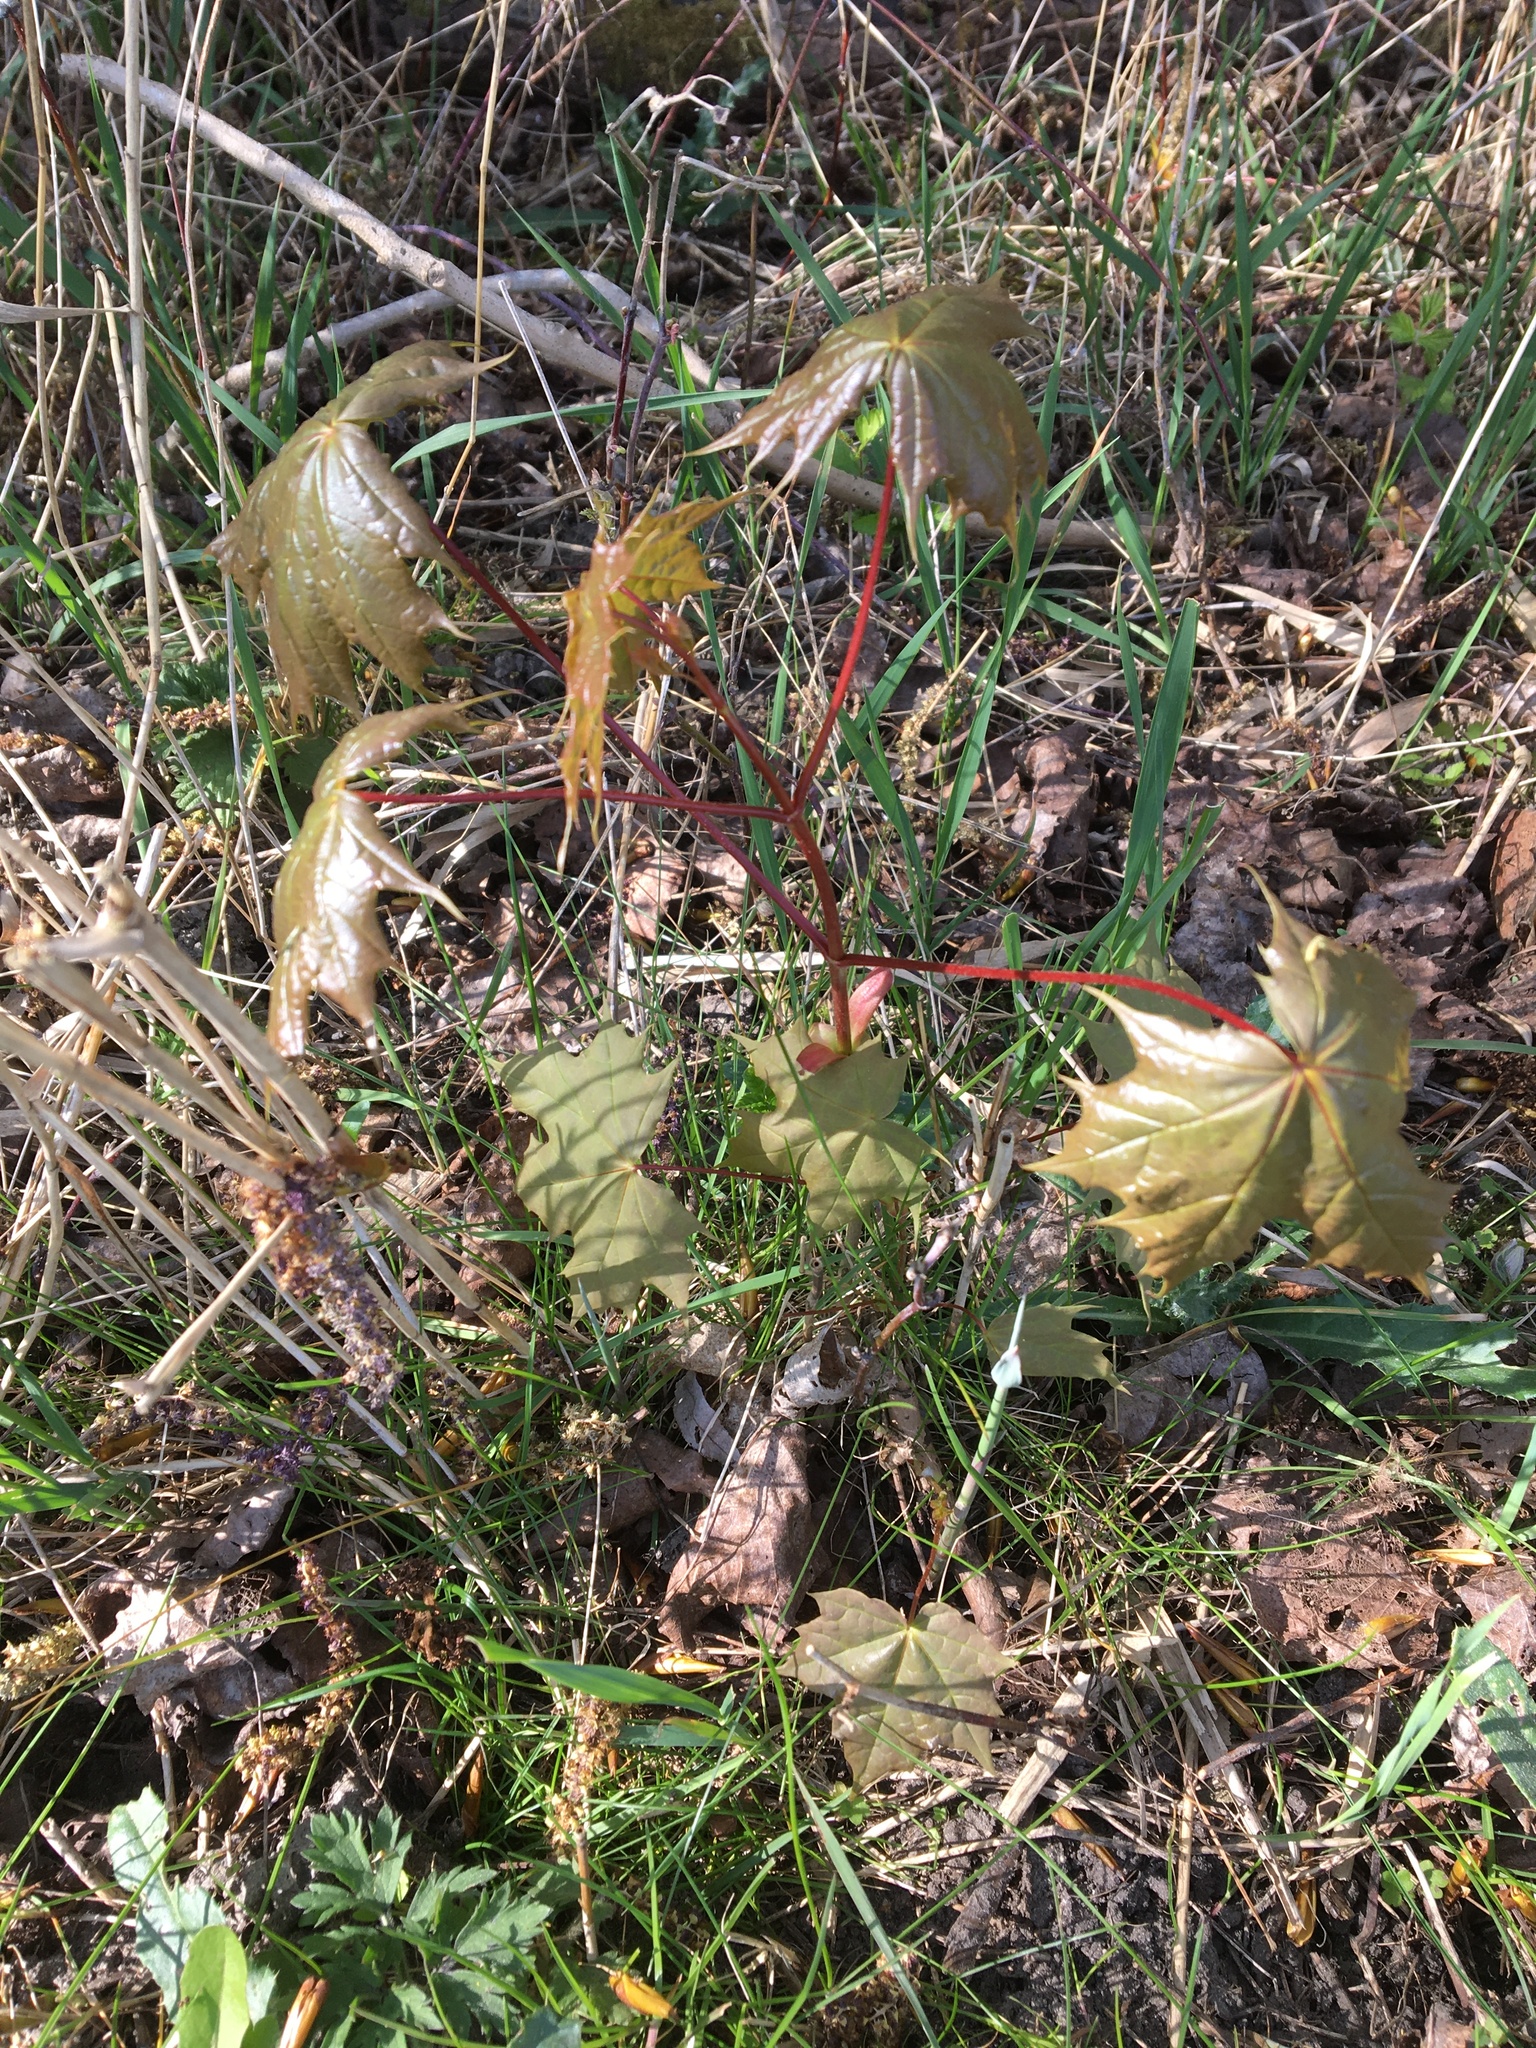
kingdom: Plantae
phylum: Tracheophyta
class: Magnoliopsida
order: Sapindales
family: Sapindaceae
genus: Acer
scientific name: Acer platanoides
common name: Norway maple
